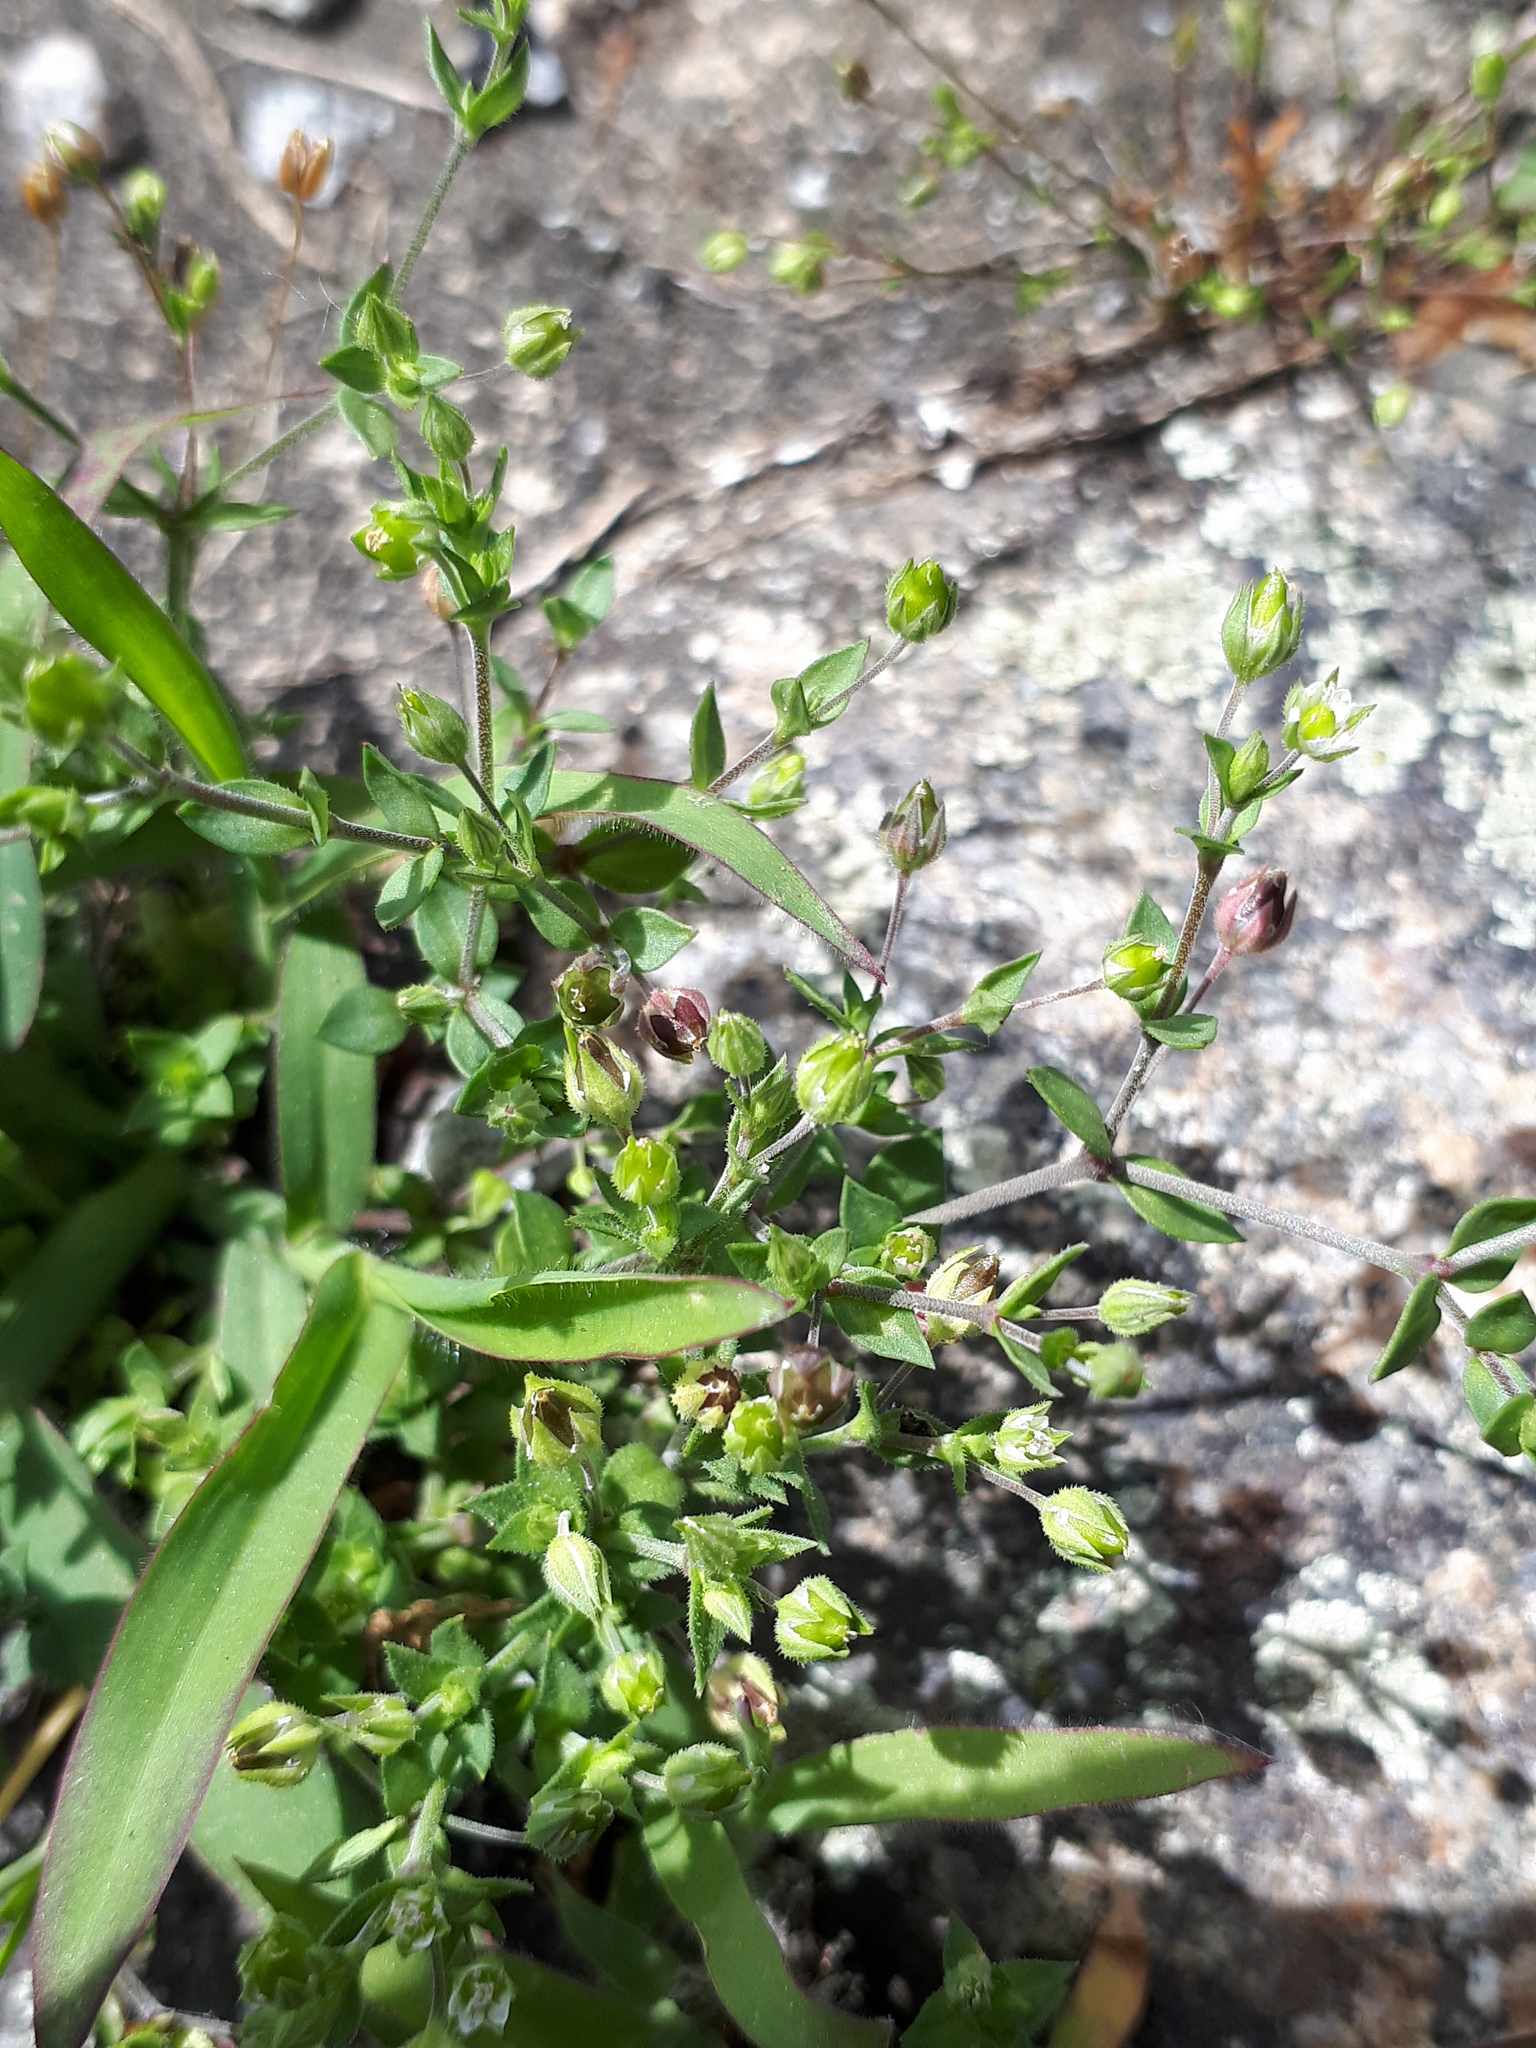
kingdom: Plantae
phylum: Tracheophyta
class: Magnoliopsida
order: Caryophyllales
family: Caryophyllaceae
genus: Arenaria
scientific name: Arenaria serpyllifolia
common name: Thyme-leaved sandwort
